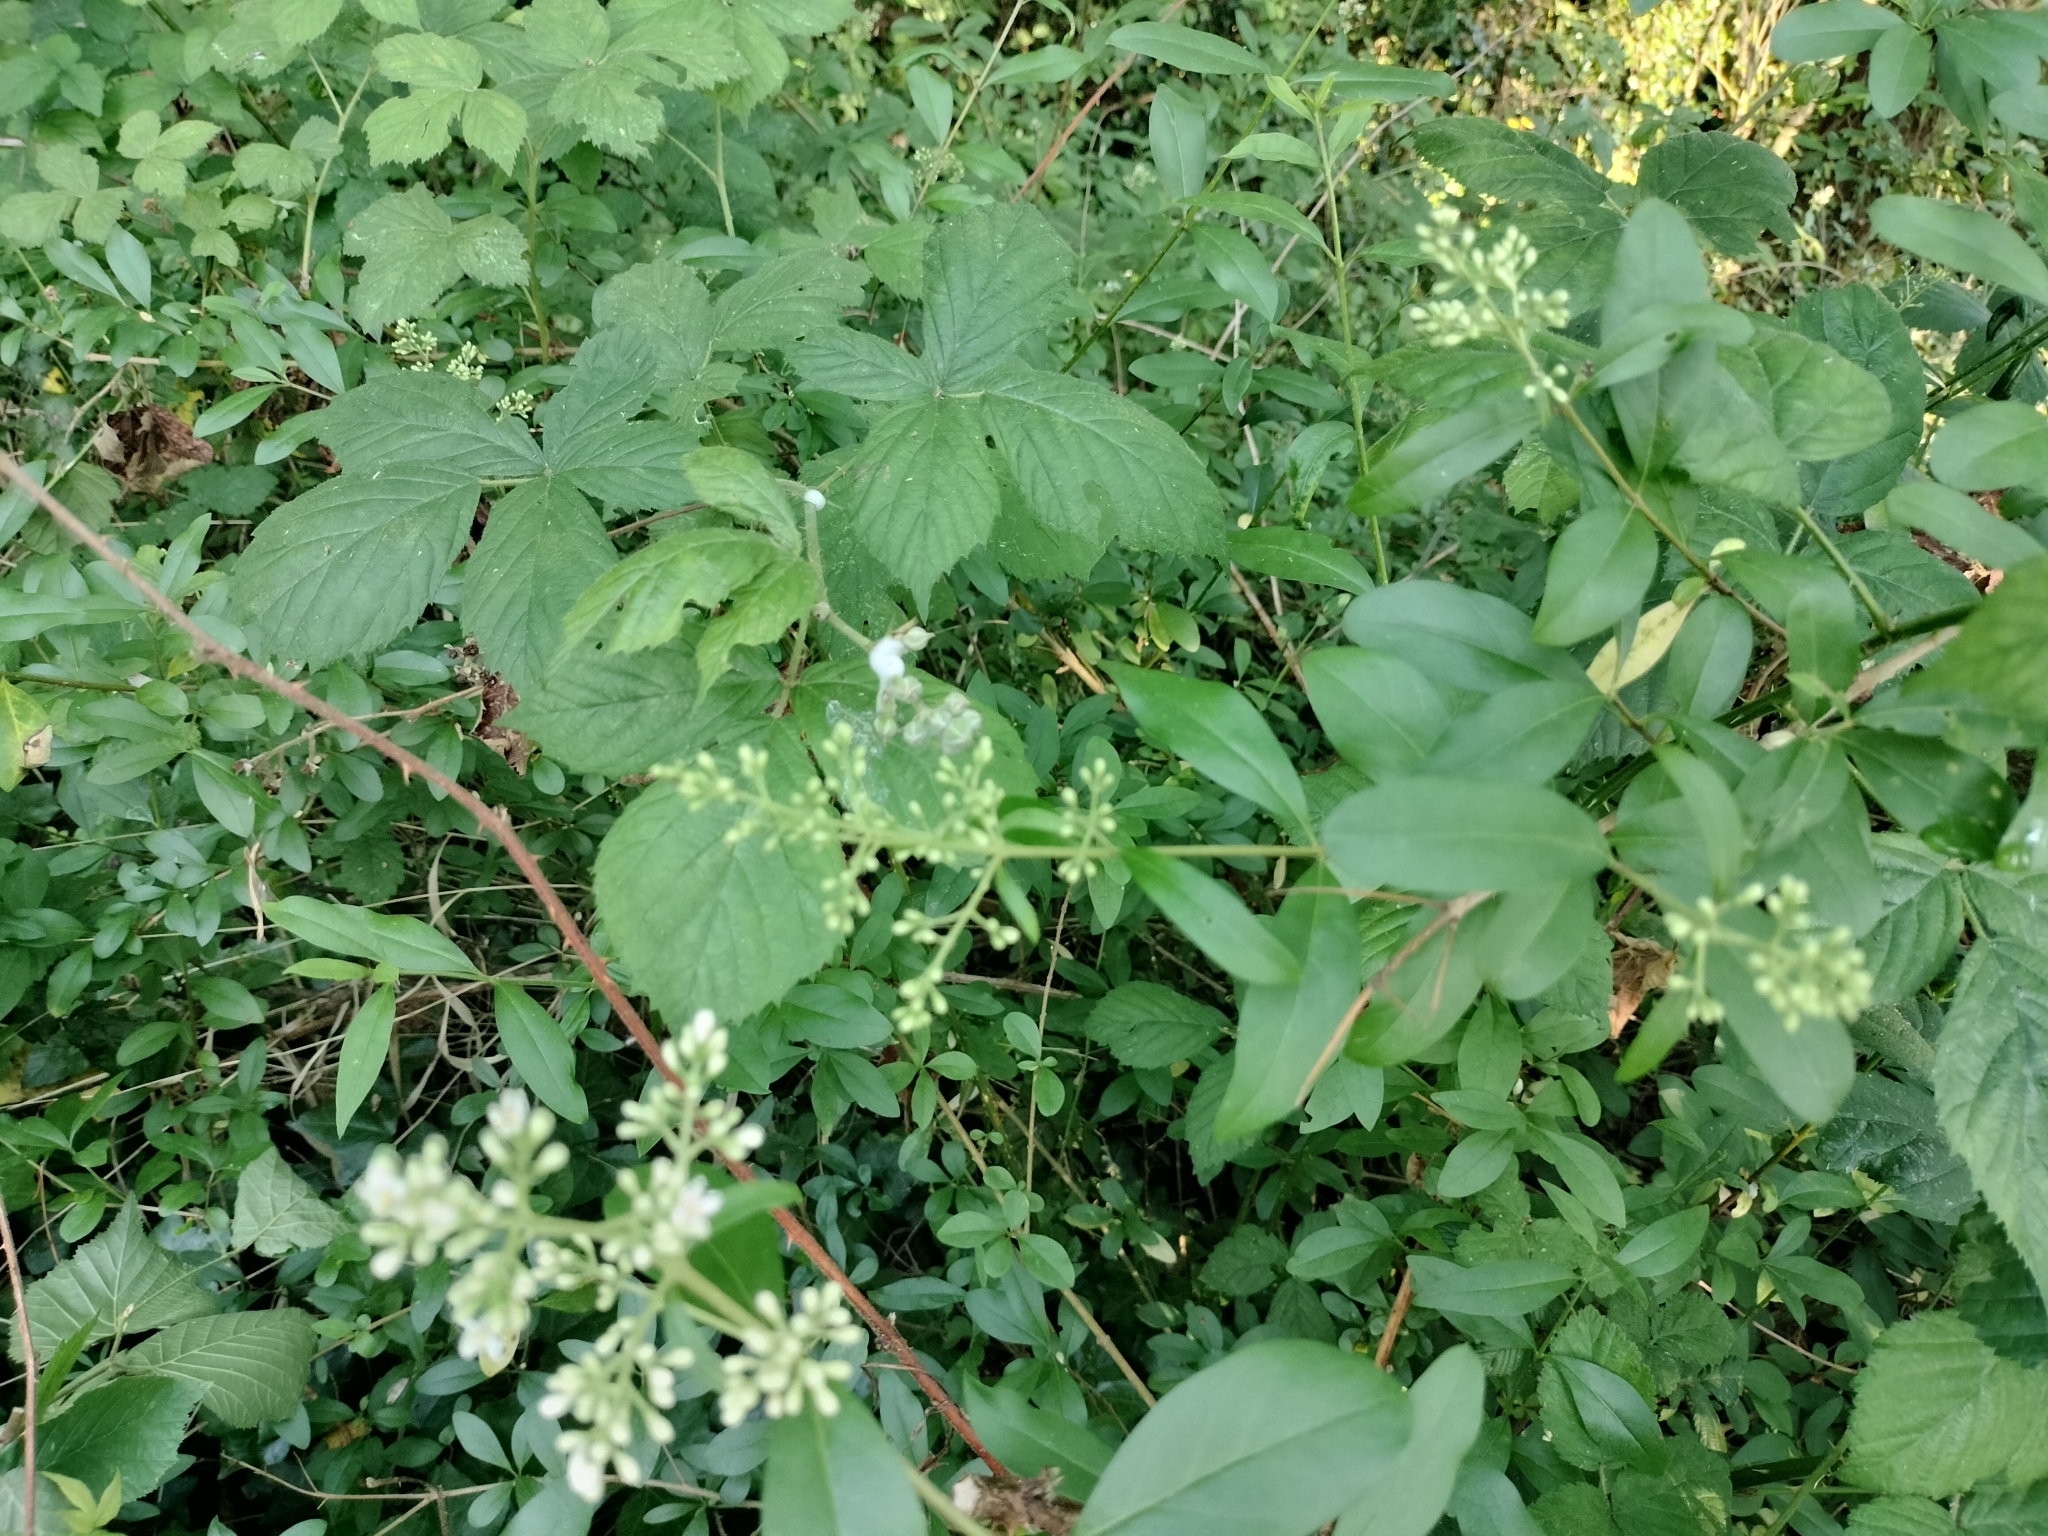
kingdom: Plantae
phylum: Tracheophyta
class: Magnoliopsida
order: Lamiales
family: Oleaceae
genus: Ligustrum
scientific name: Ligustrum vulgare
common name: Wild privet
